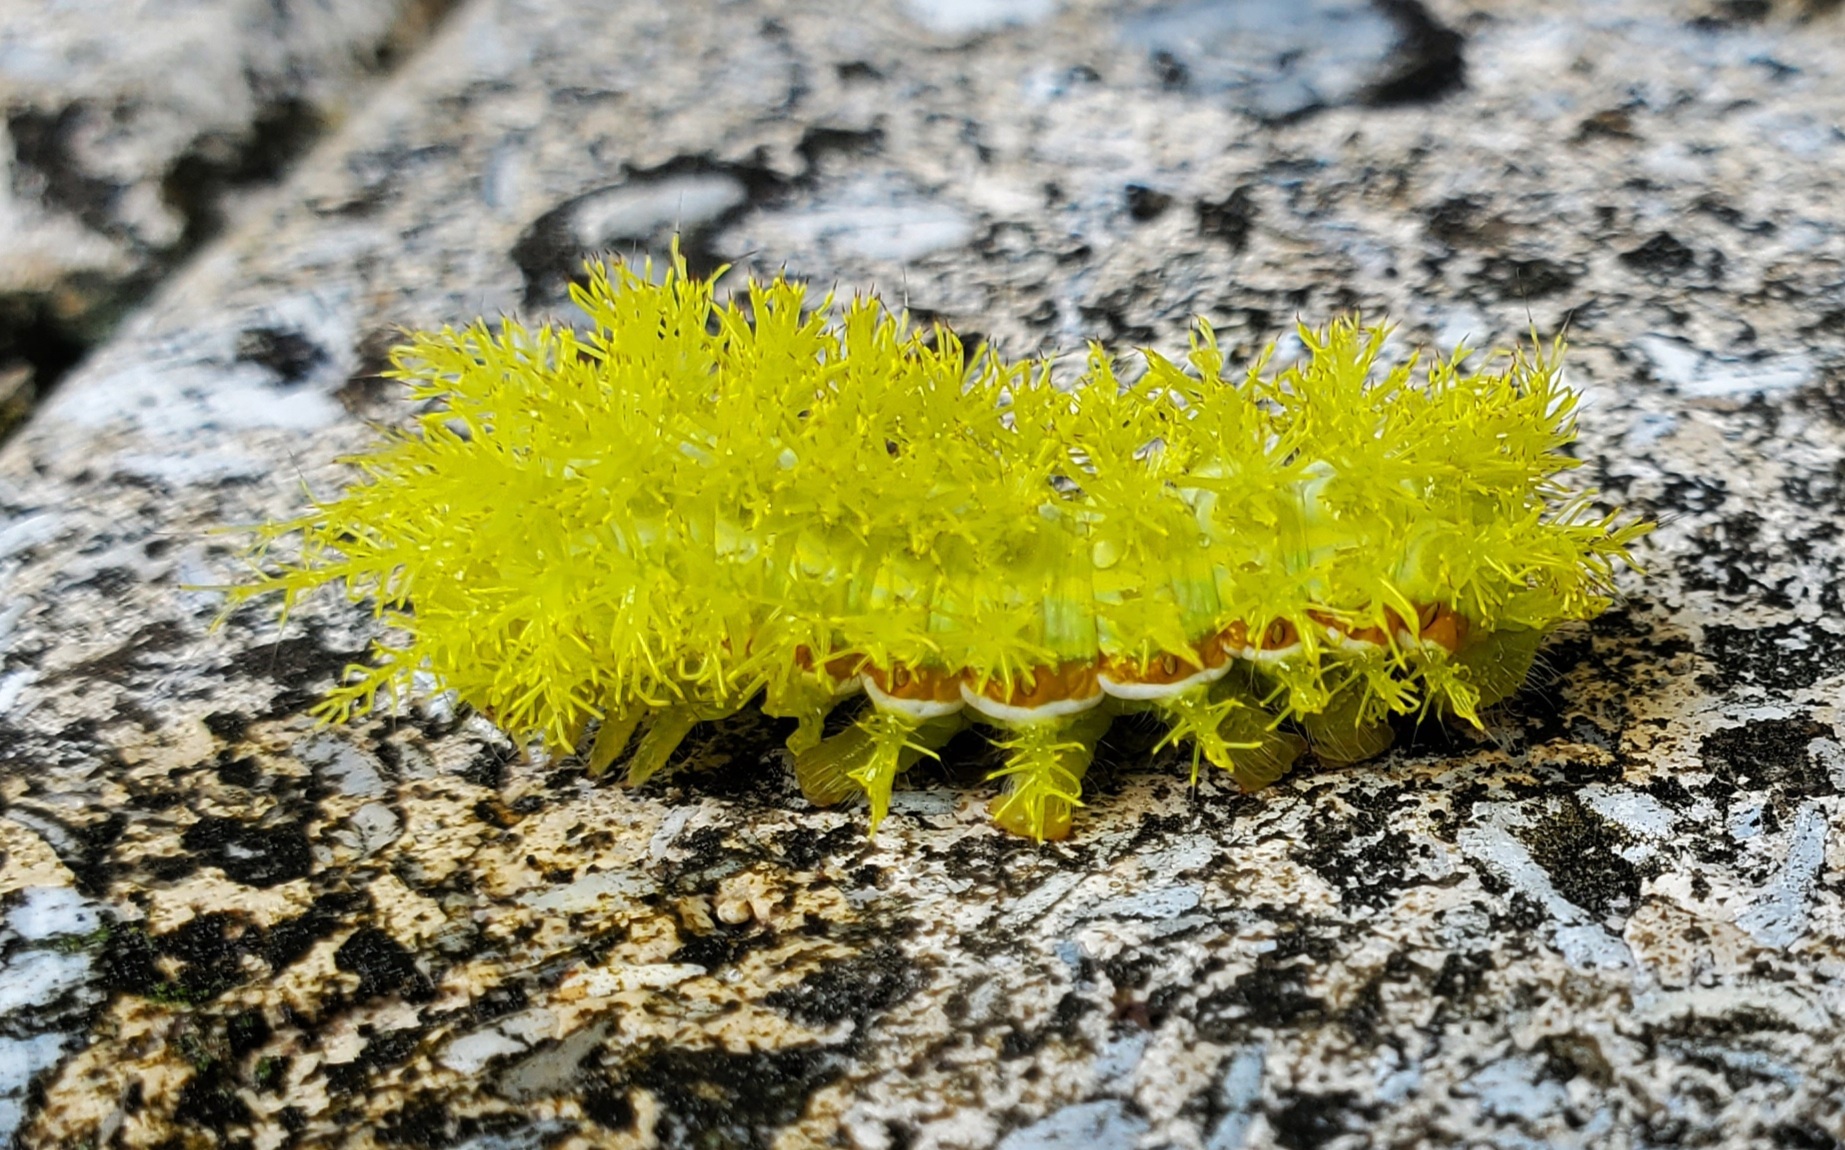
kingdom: Animalia
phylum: Arthropoda
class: Insecta
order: Lepidoptera
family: Saturniidae
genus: Automeris
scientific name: Automeris io
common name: Io moth
